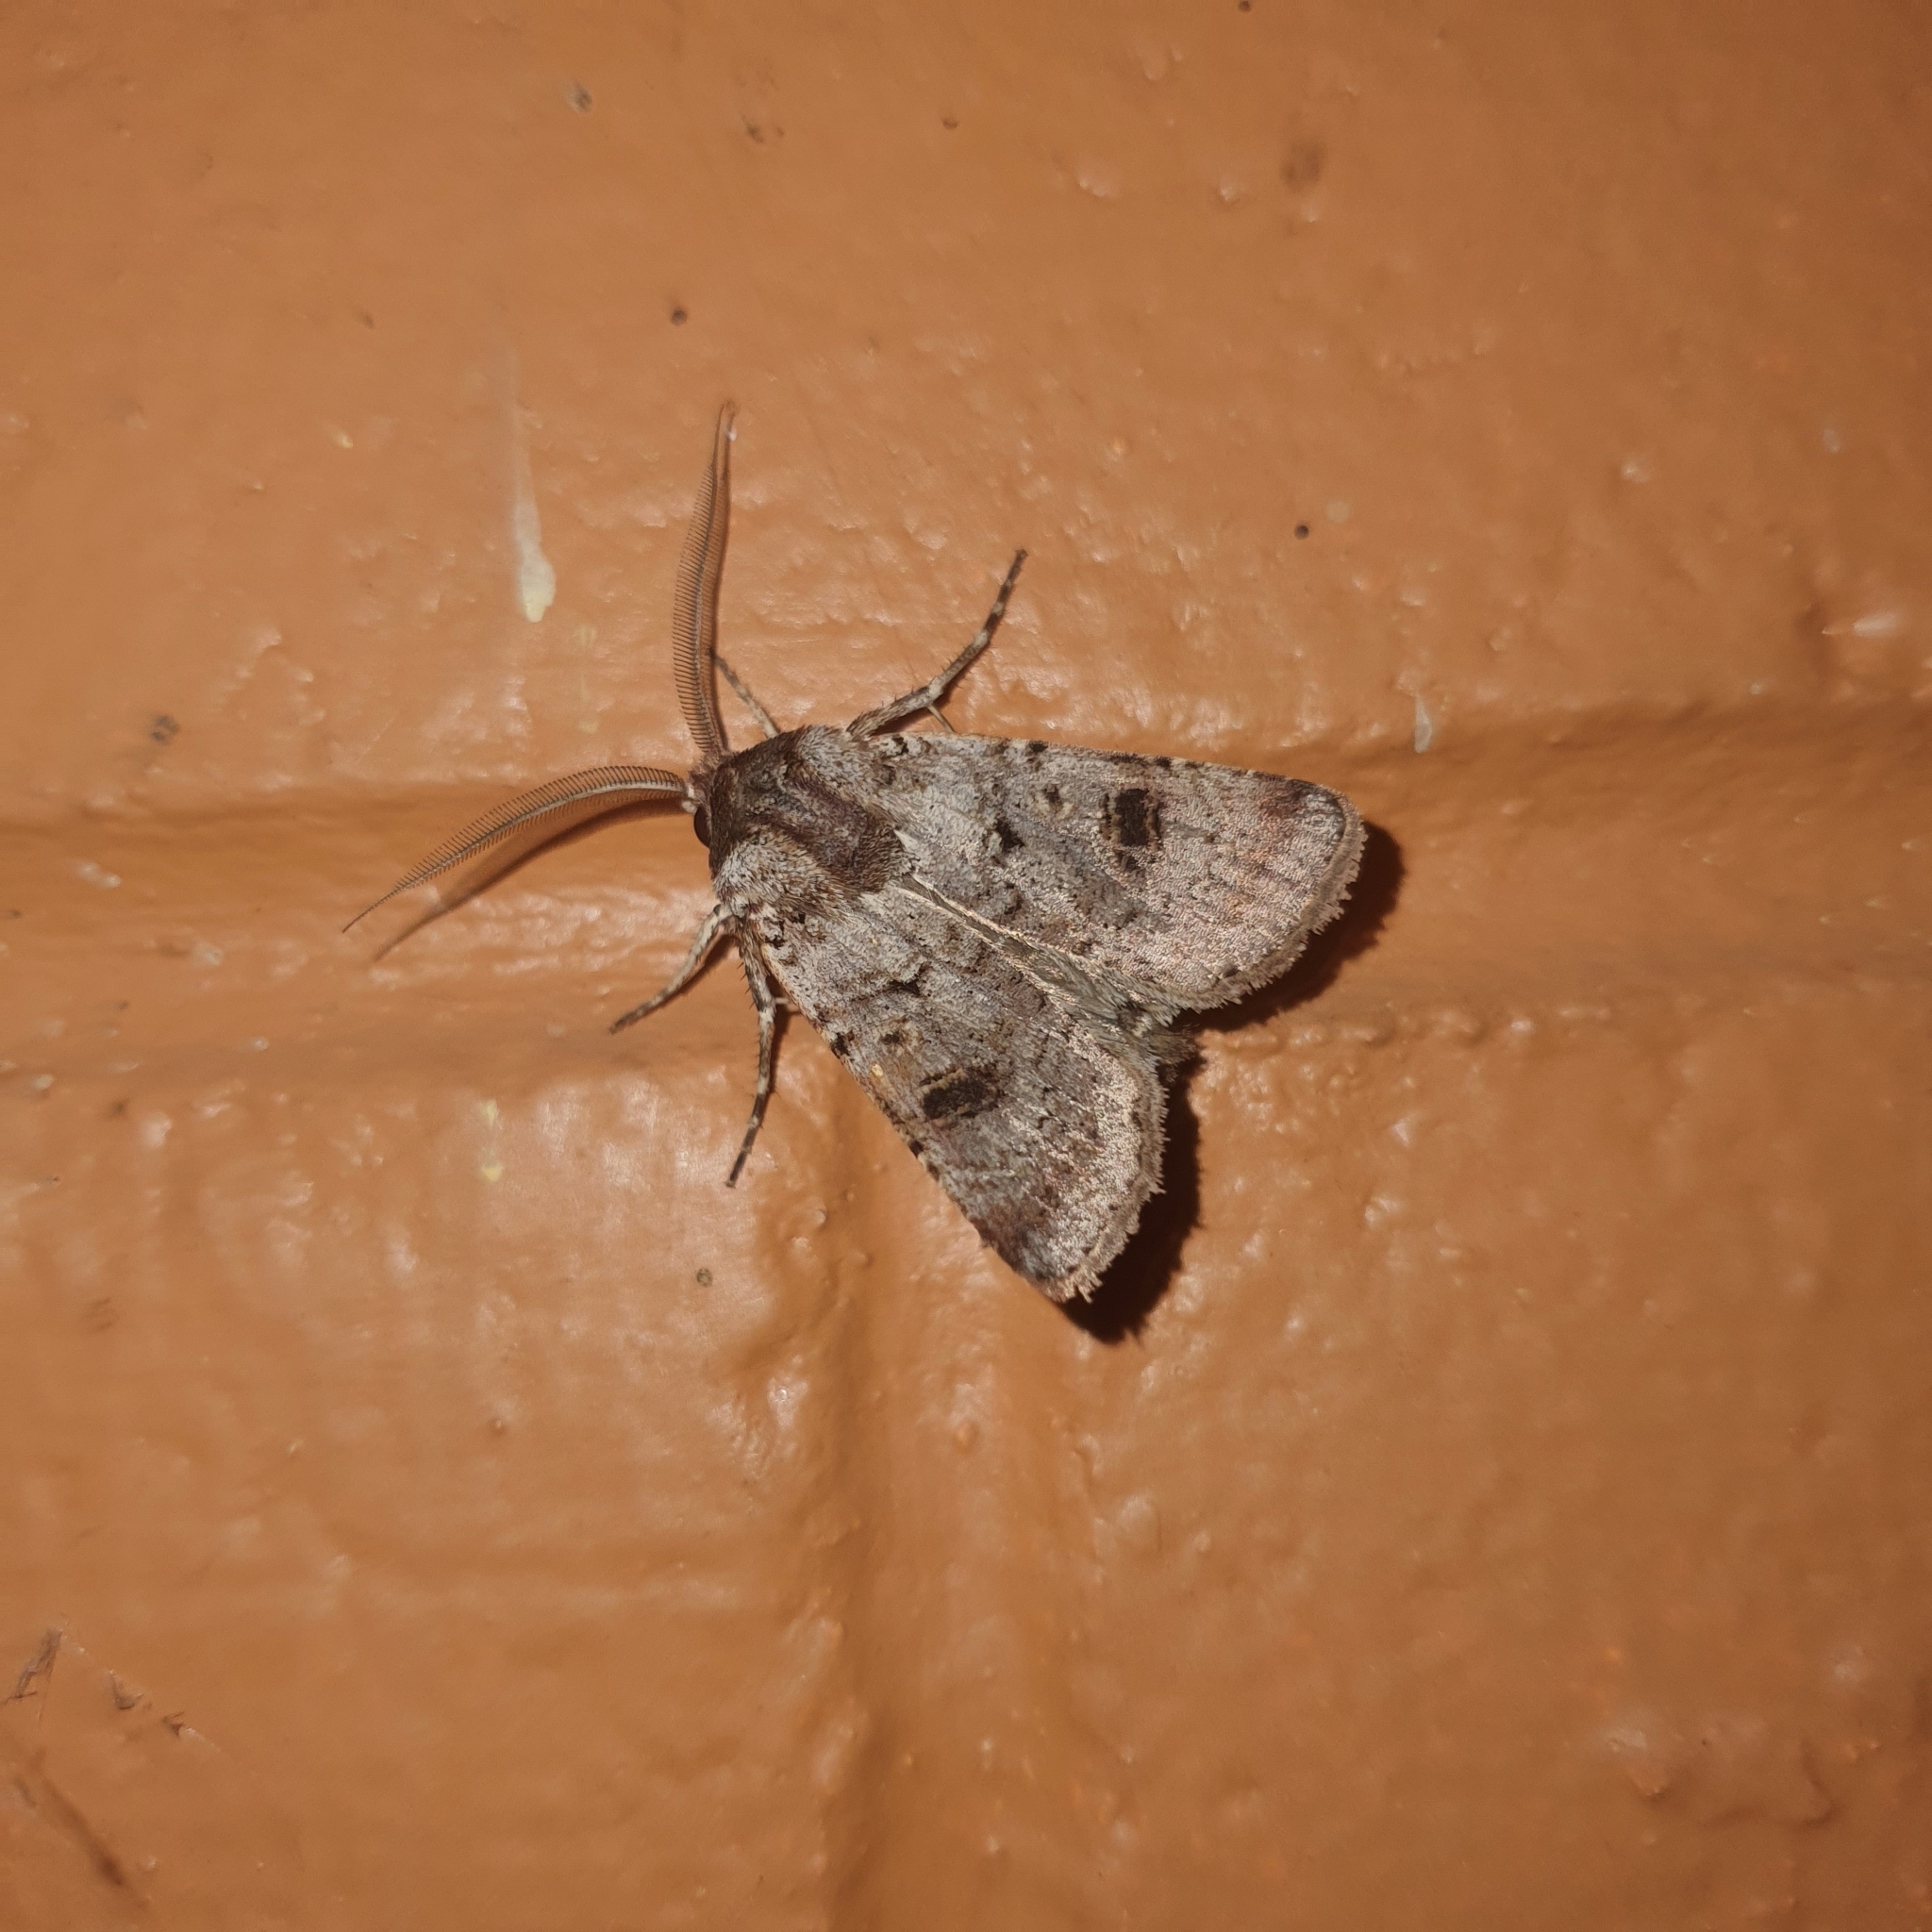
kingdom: Animalia
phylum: Arthropoda
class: Insecta
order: Lepidoptera
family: Noctuidae
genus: Agrotis
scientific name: Agrotis porphyricollis
